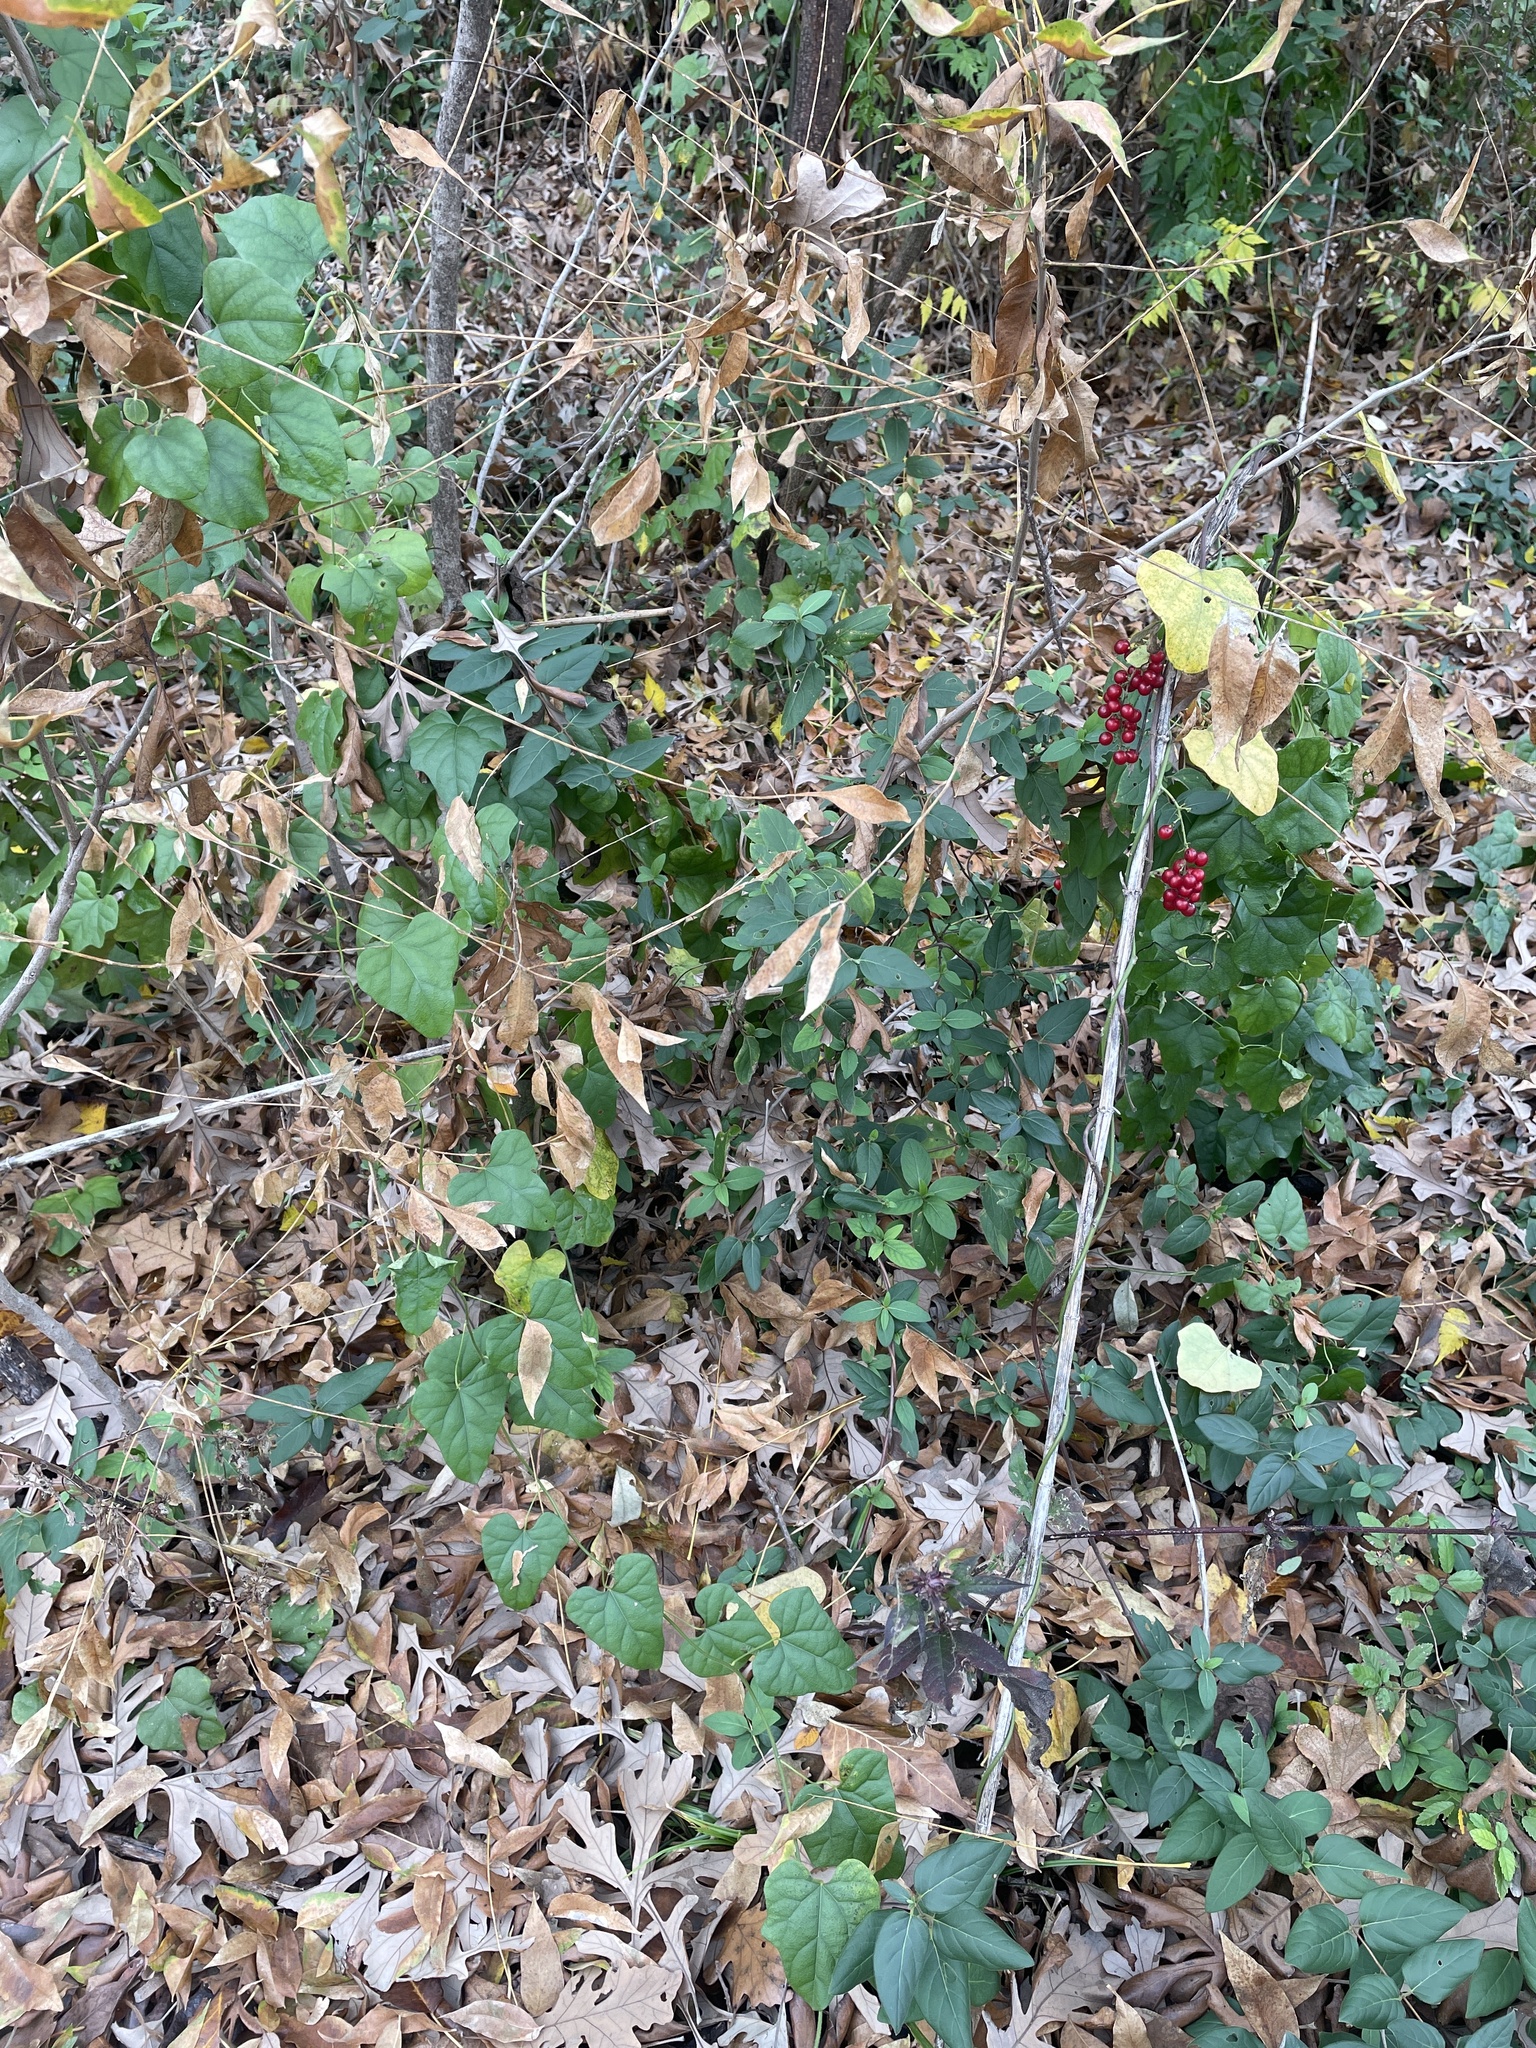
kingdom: Plantae
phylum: Tracheophyta
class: Magnoliopsida
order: Ranunculales
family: Menispermaceae
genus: Cocculus
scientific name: Cocculus carolinus
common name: Carolina moonseed
